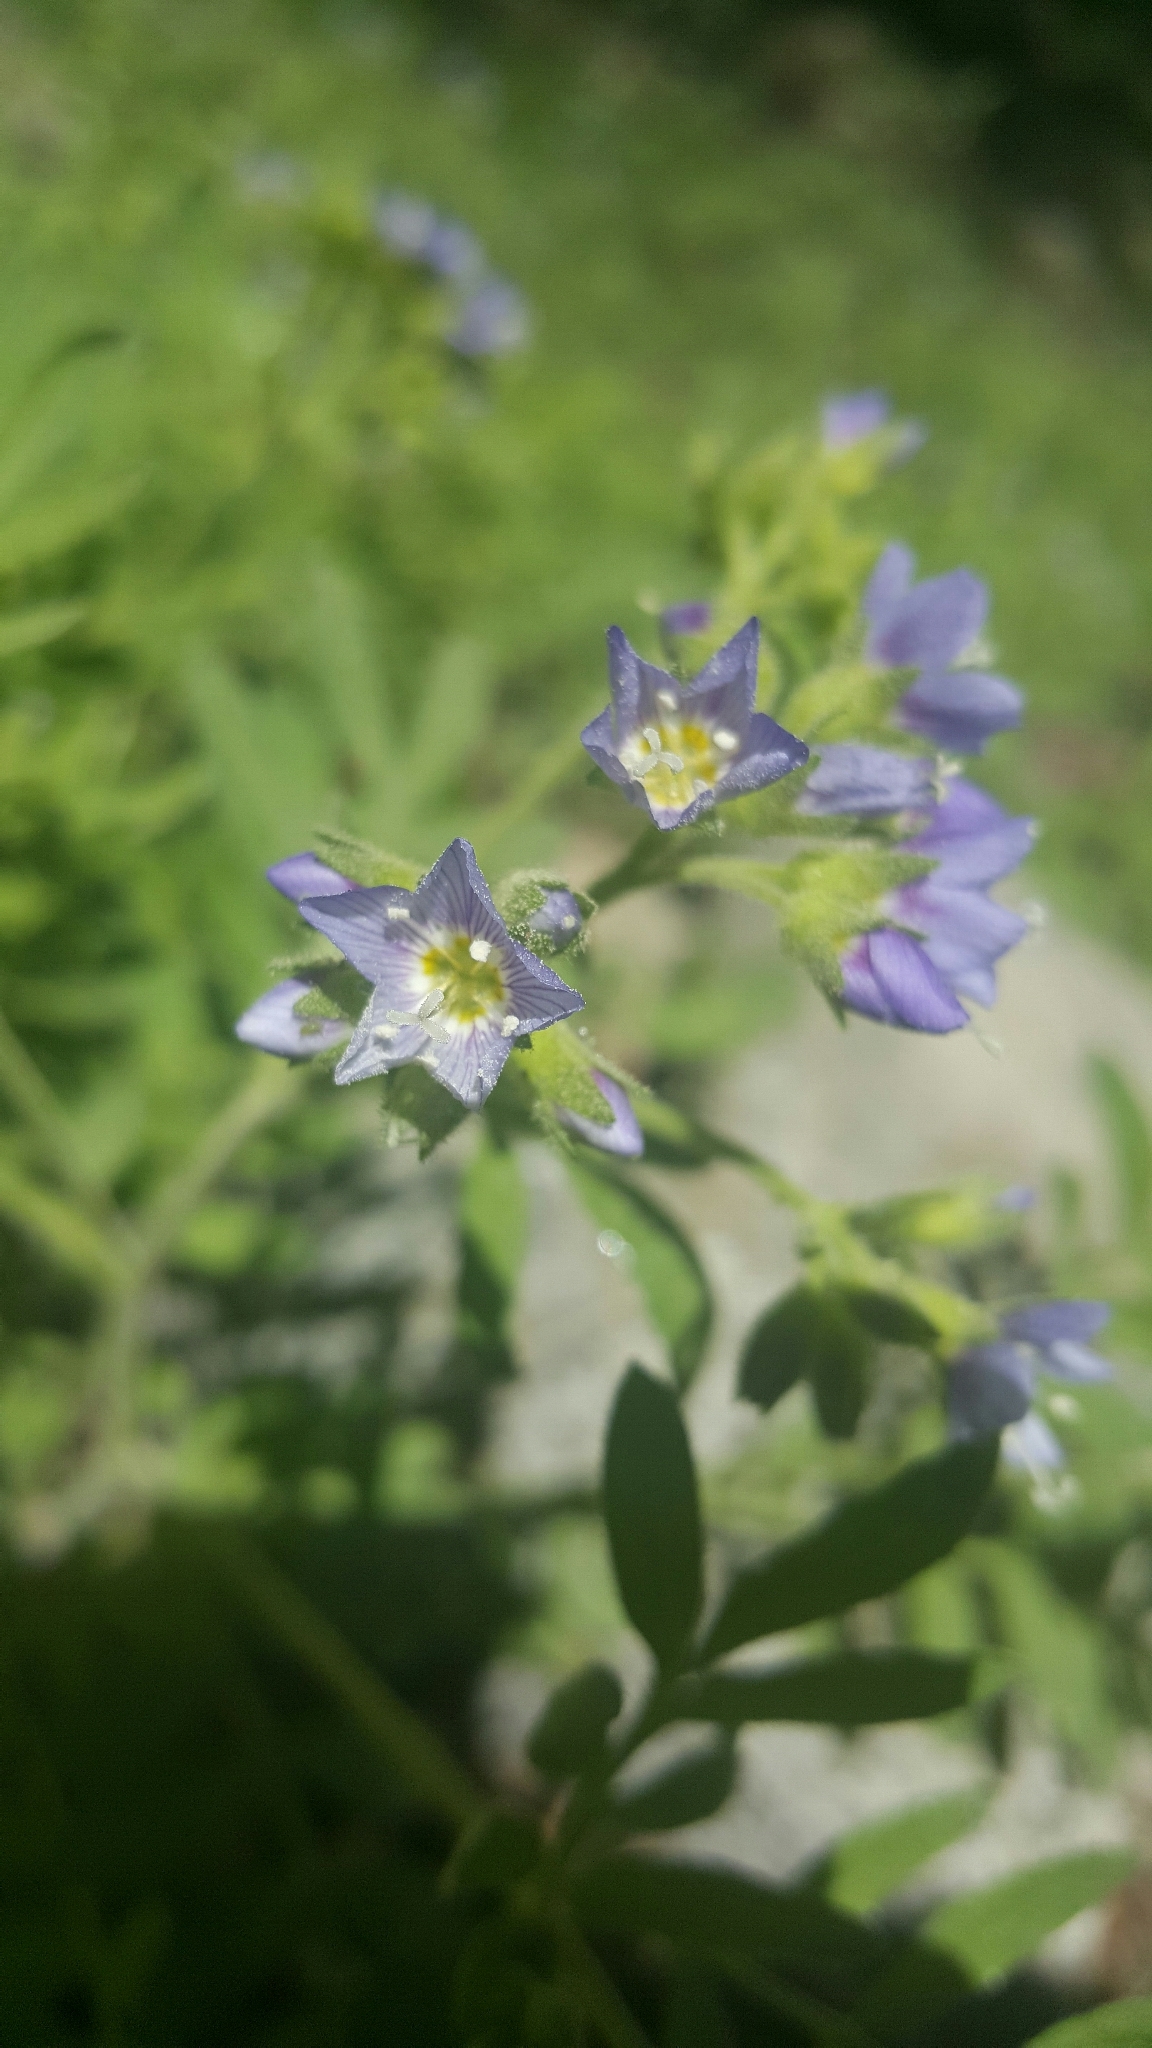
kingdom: Plantae
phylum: Tracheophyta
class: Magnoliopsida
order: Ericales
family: Polemoniaceae
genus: Polemonium
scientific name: Polemonium californicum
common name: California jacob's ladder
